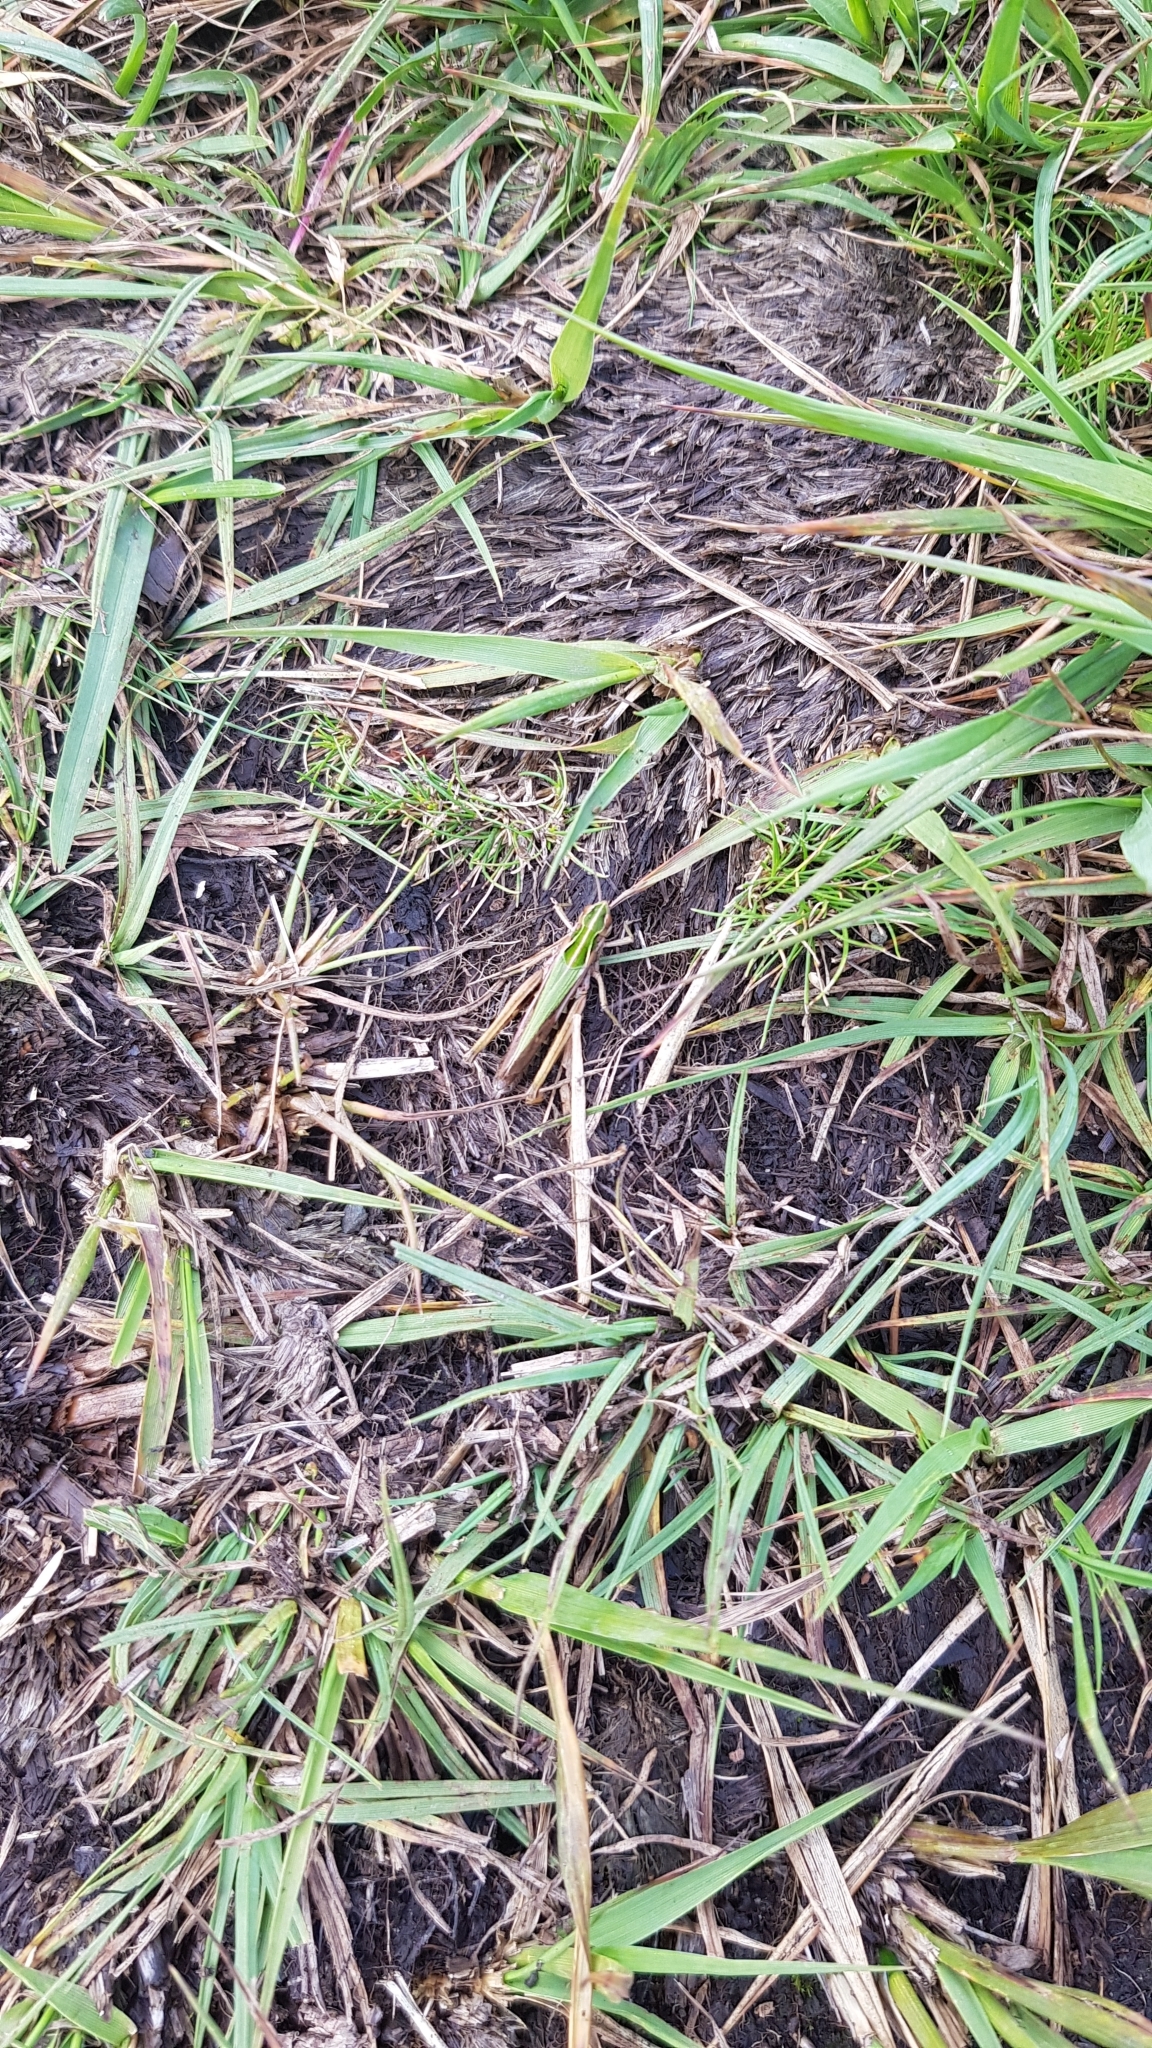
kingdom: Animalia
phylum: Arthropoda
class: Insecta
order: Orthoptera
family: Acrididae
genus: Omocestus
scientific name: Omocestus viridulus
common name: Common green grasshopper
